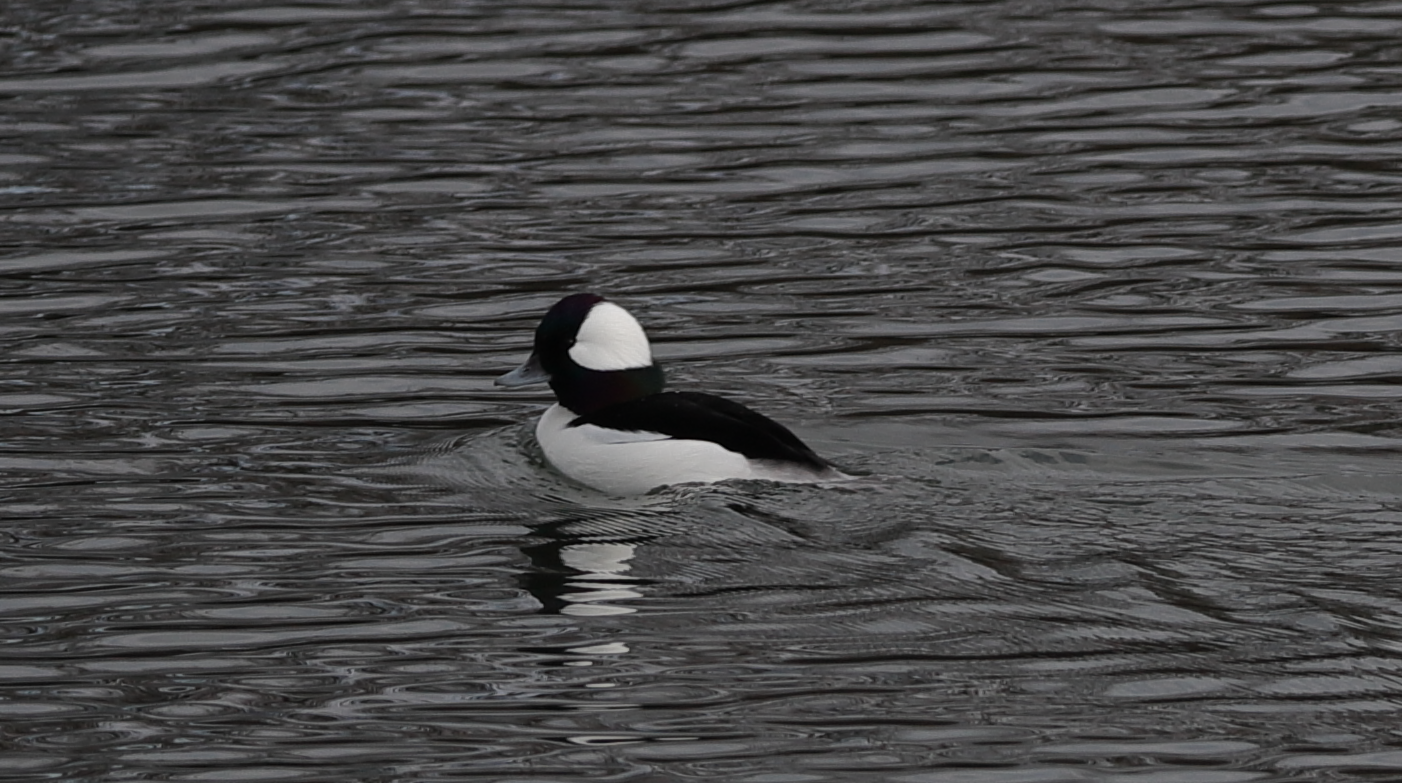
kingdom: Animalia
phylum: Chordata
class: Aves
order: Anseriformes
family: Anatidae
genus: Bucephala
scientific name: Bucephala albeola
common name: Bufflehead
